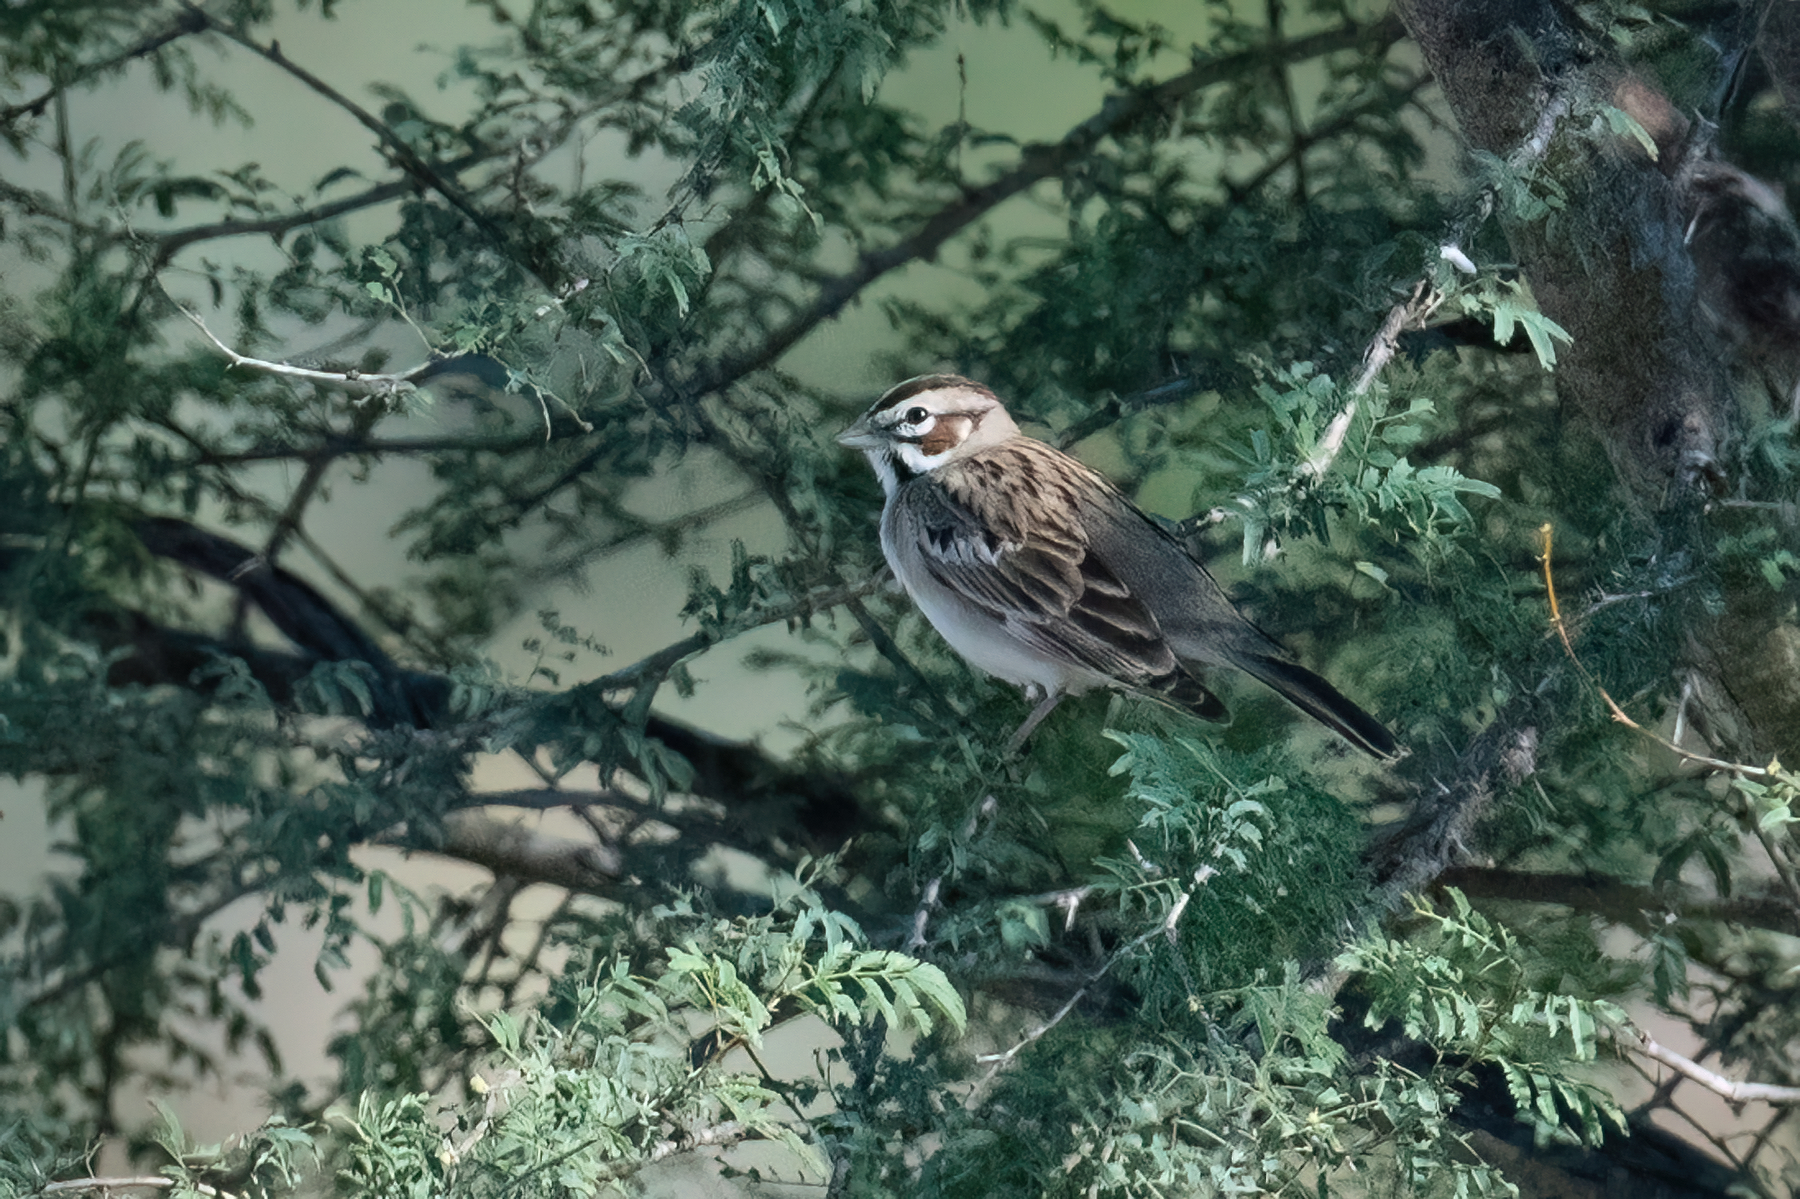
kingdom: Animalia
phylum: Chordata
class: Aves
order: Passeriformes
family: Passerellidae
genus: Chondestes
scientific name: Chondestes grammacus
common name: Lark sparrow
